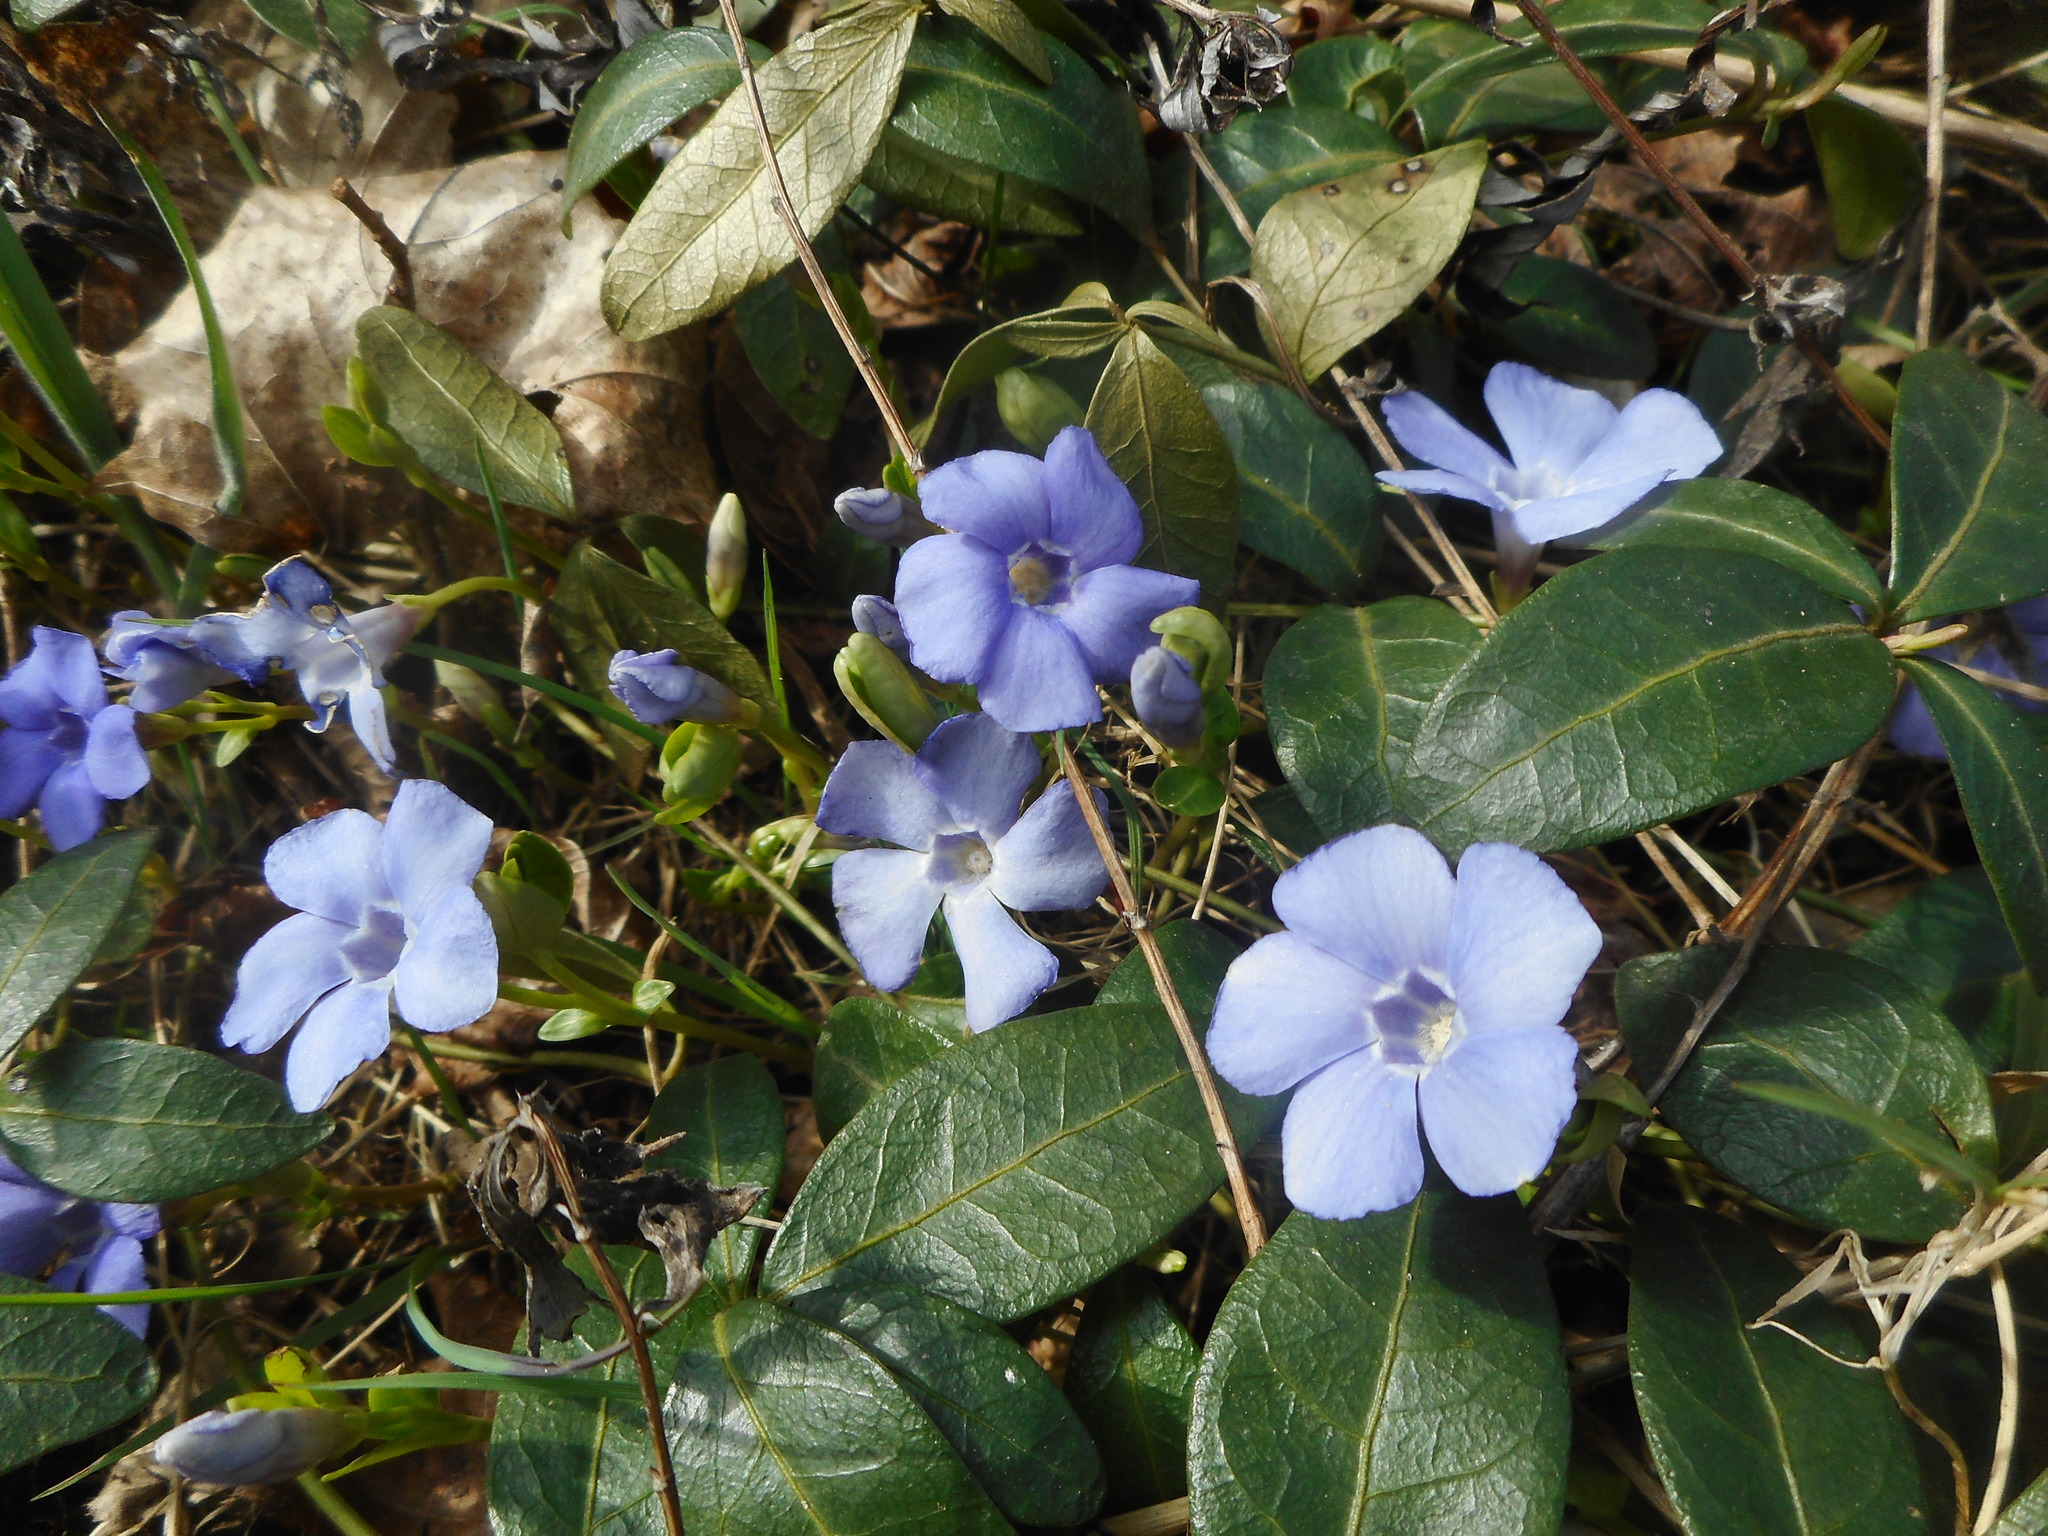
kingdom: Plantae
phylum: Tracheophyta
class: Magnoliopsida
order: Gentianales
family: Apocynaceae
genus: Vinca
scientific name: Vinca minor
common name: Lesser periwinkle
